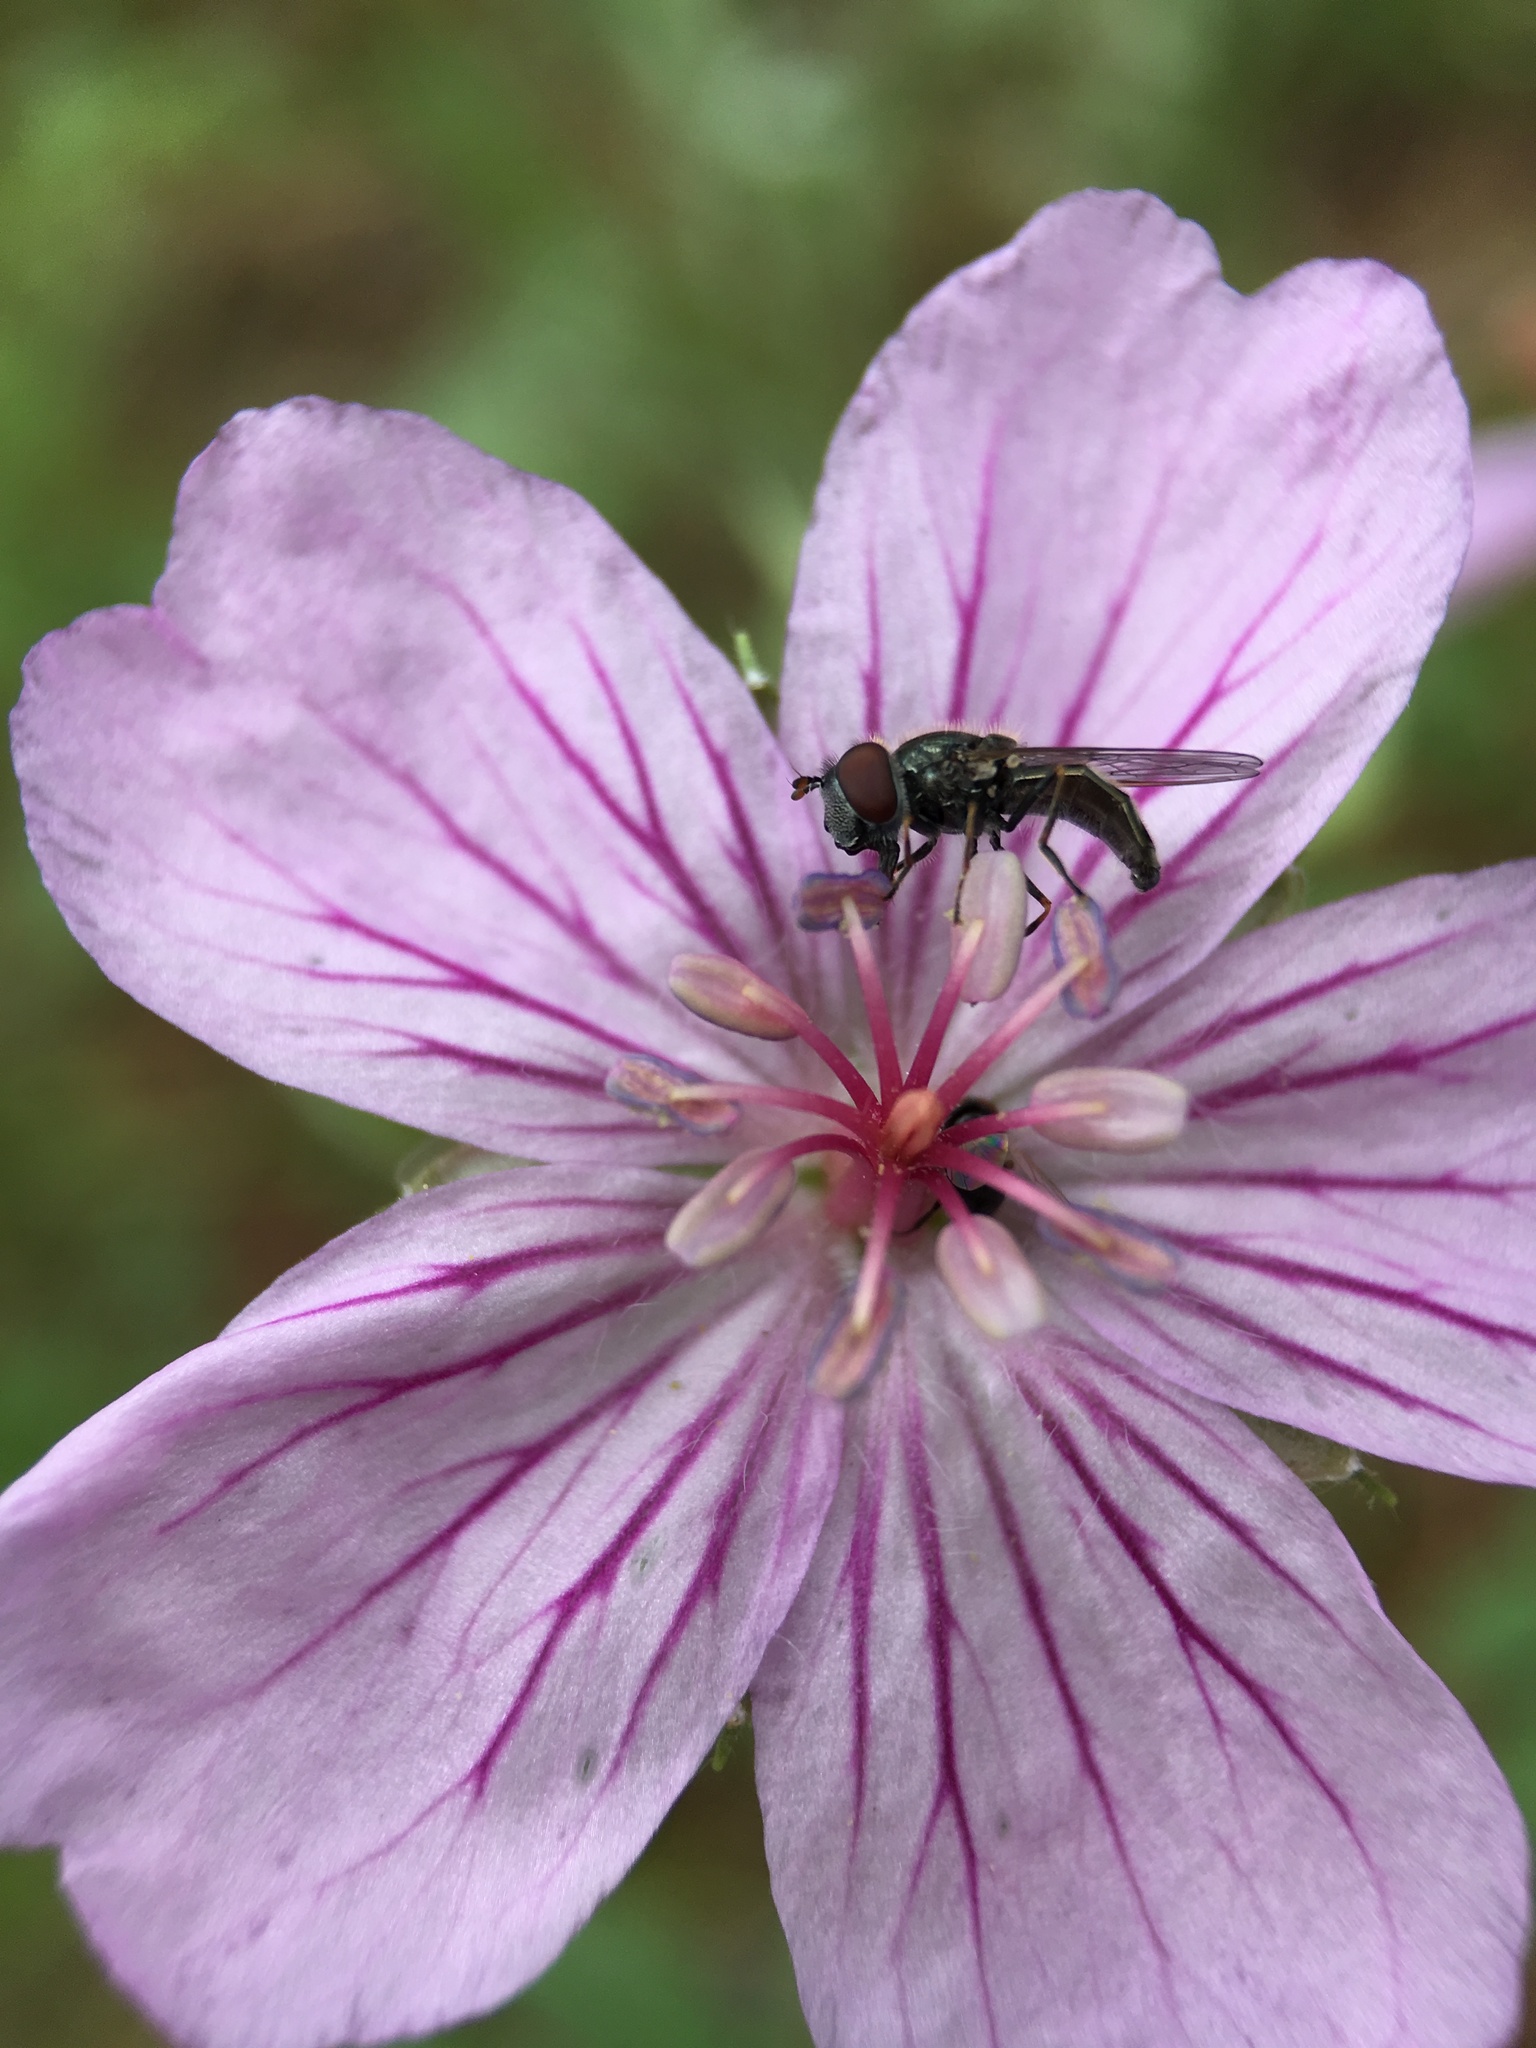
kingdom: Plantae
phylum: Tracheophyta
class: Magnoliopsida
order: Geraniales
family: Geraniaceae
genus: Geranium
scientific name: Geranium caespitosum
